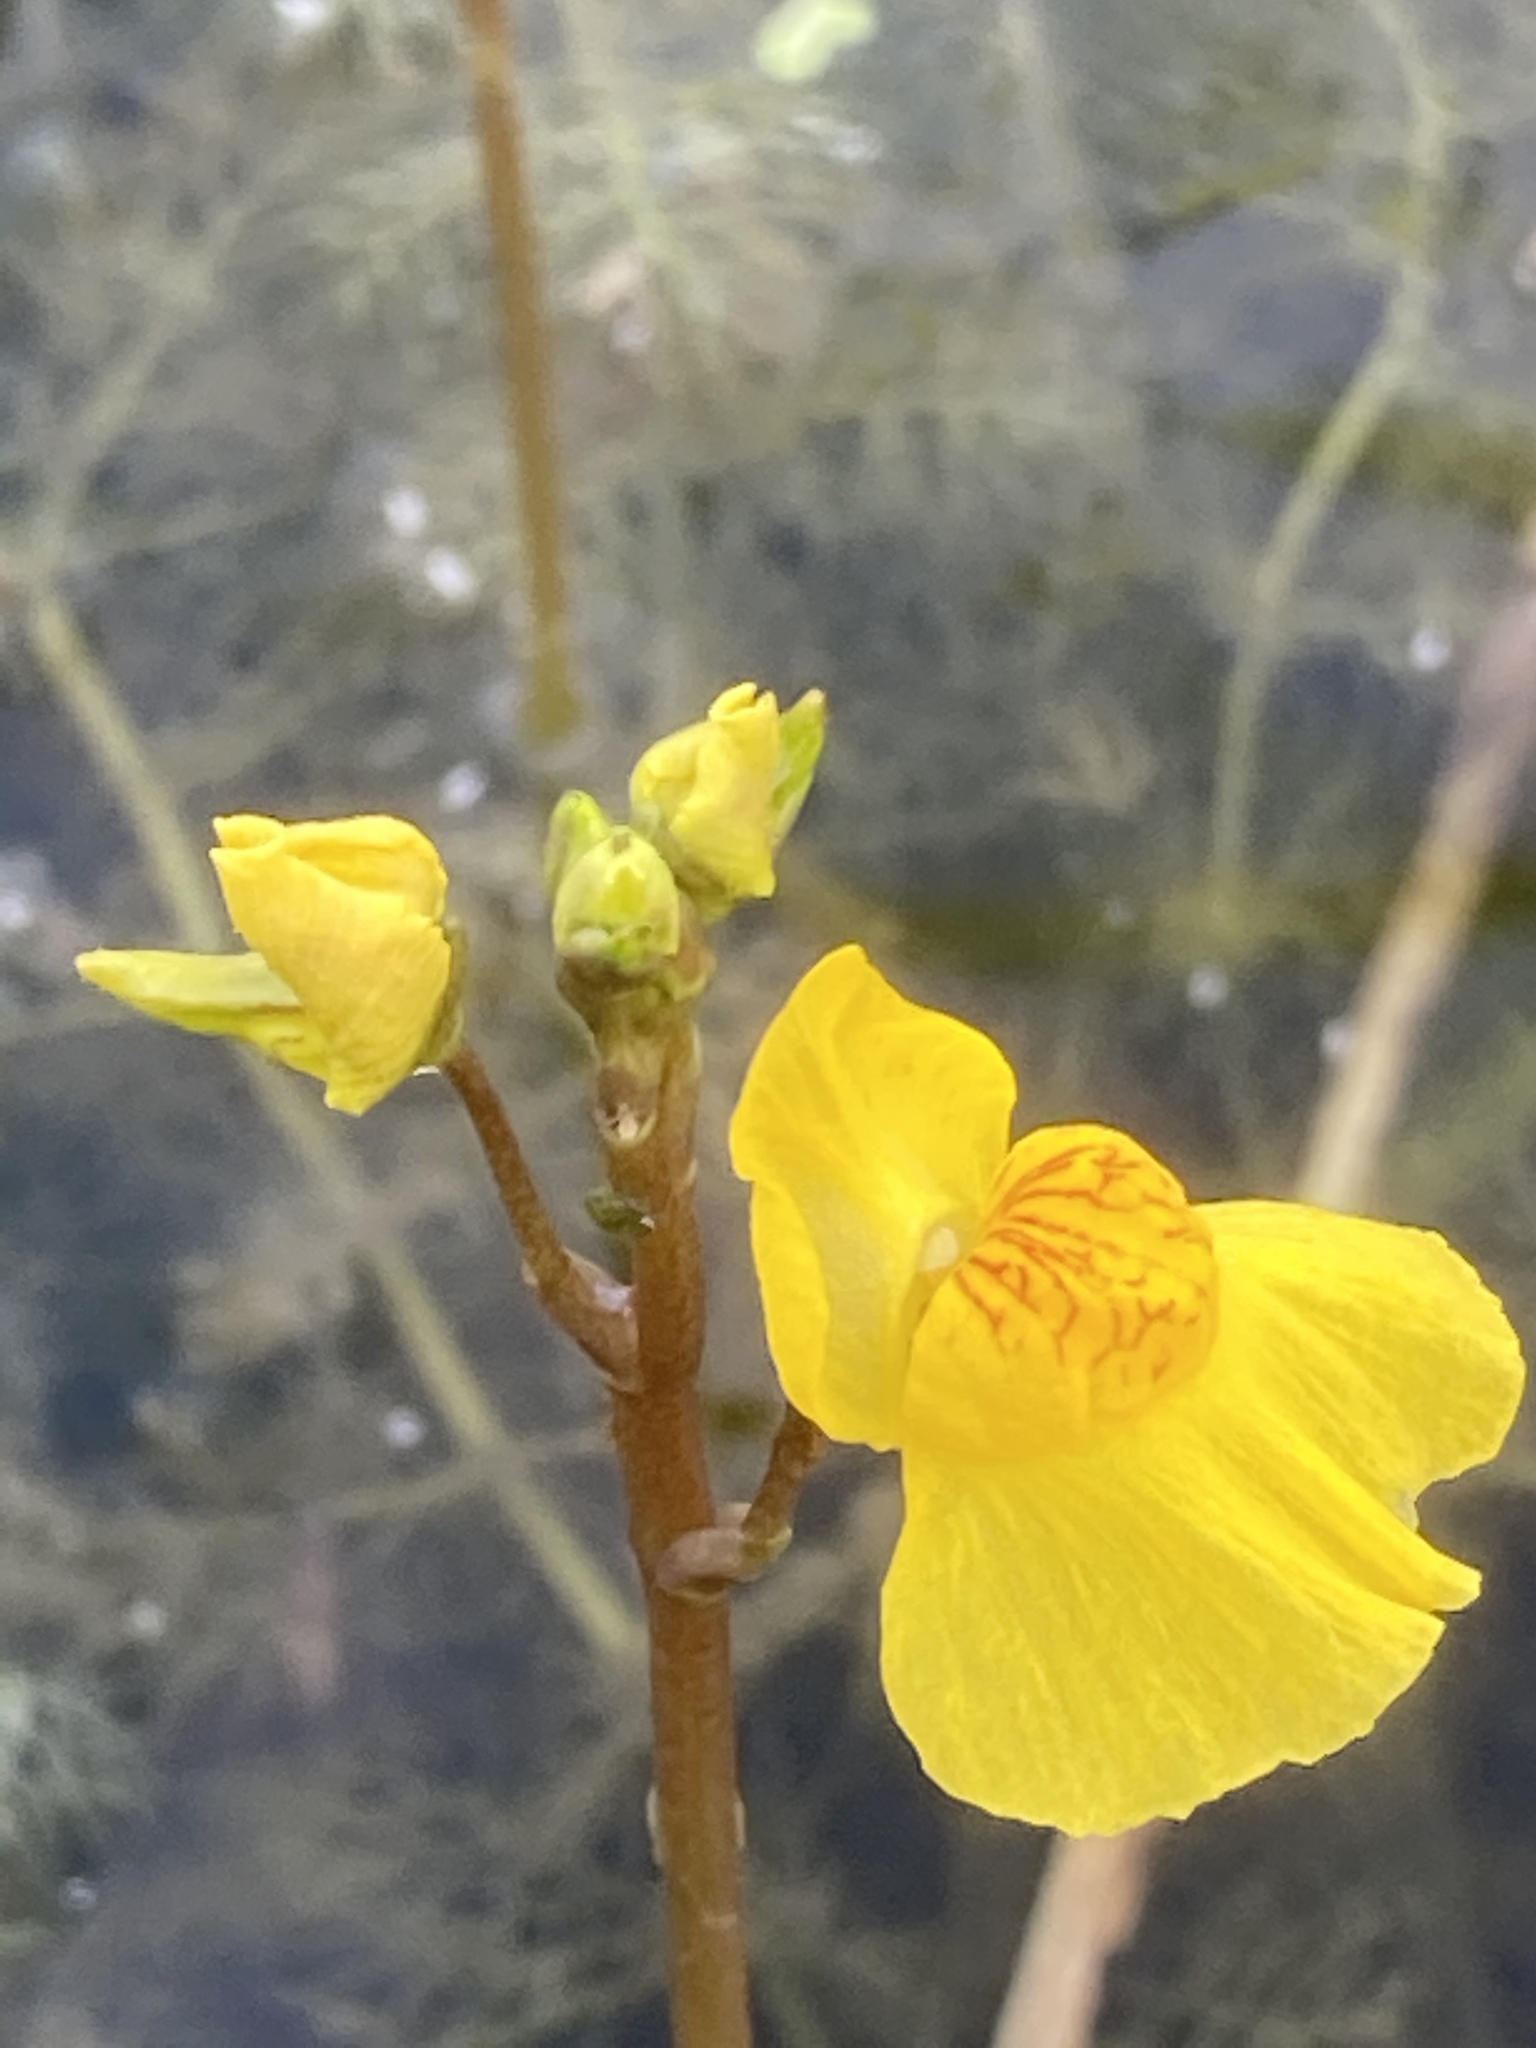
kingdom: Plantae
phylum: Tracheophyta
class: Magnoliopsida
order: Lamiales
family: Lentibulariaceae
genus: Utricularia
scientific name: Utricularia australis
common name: Bladderwort
